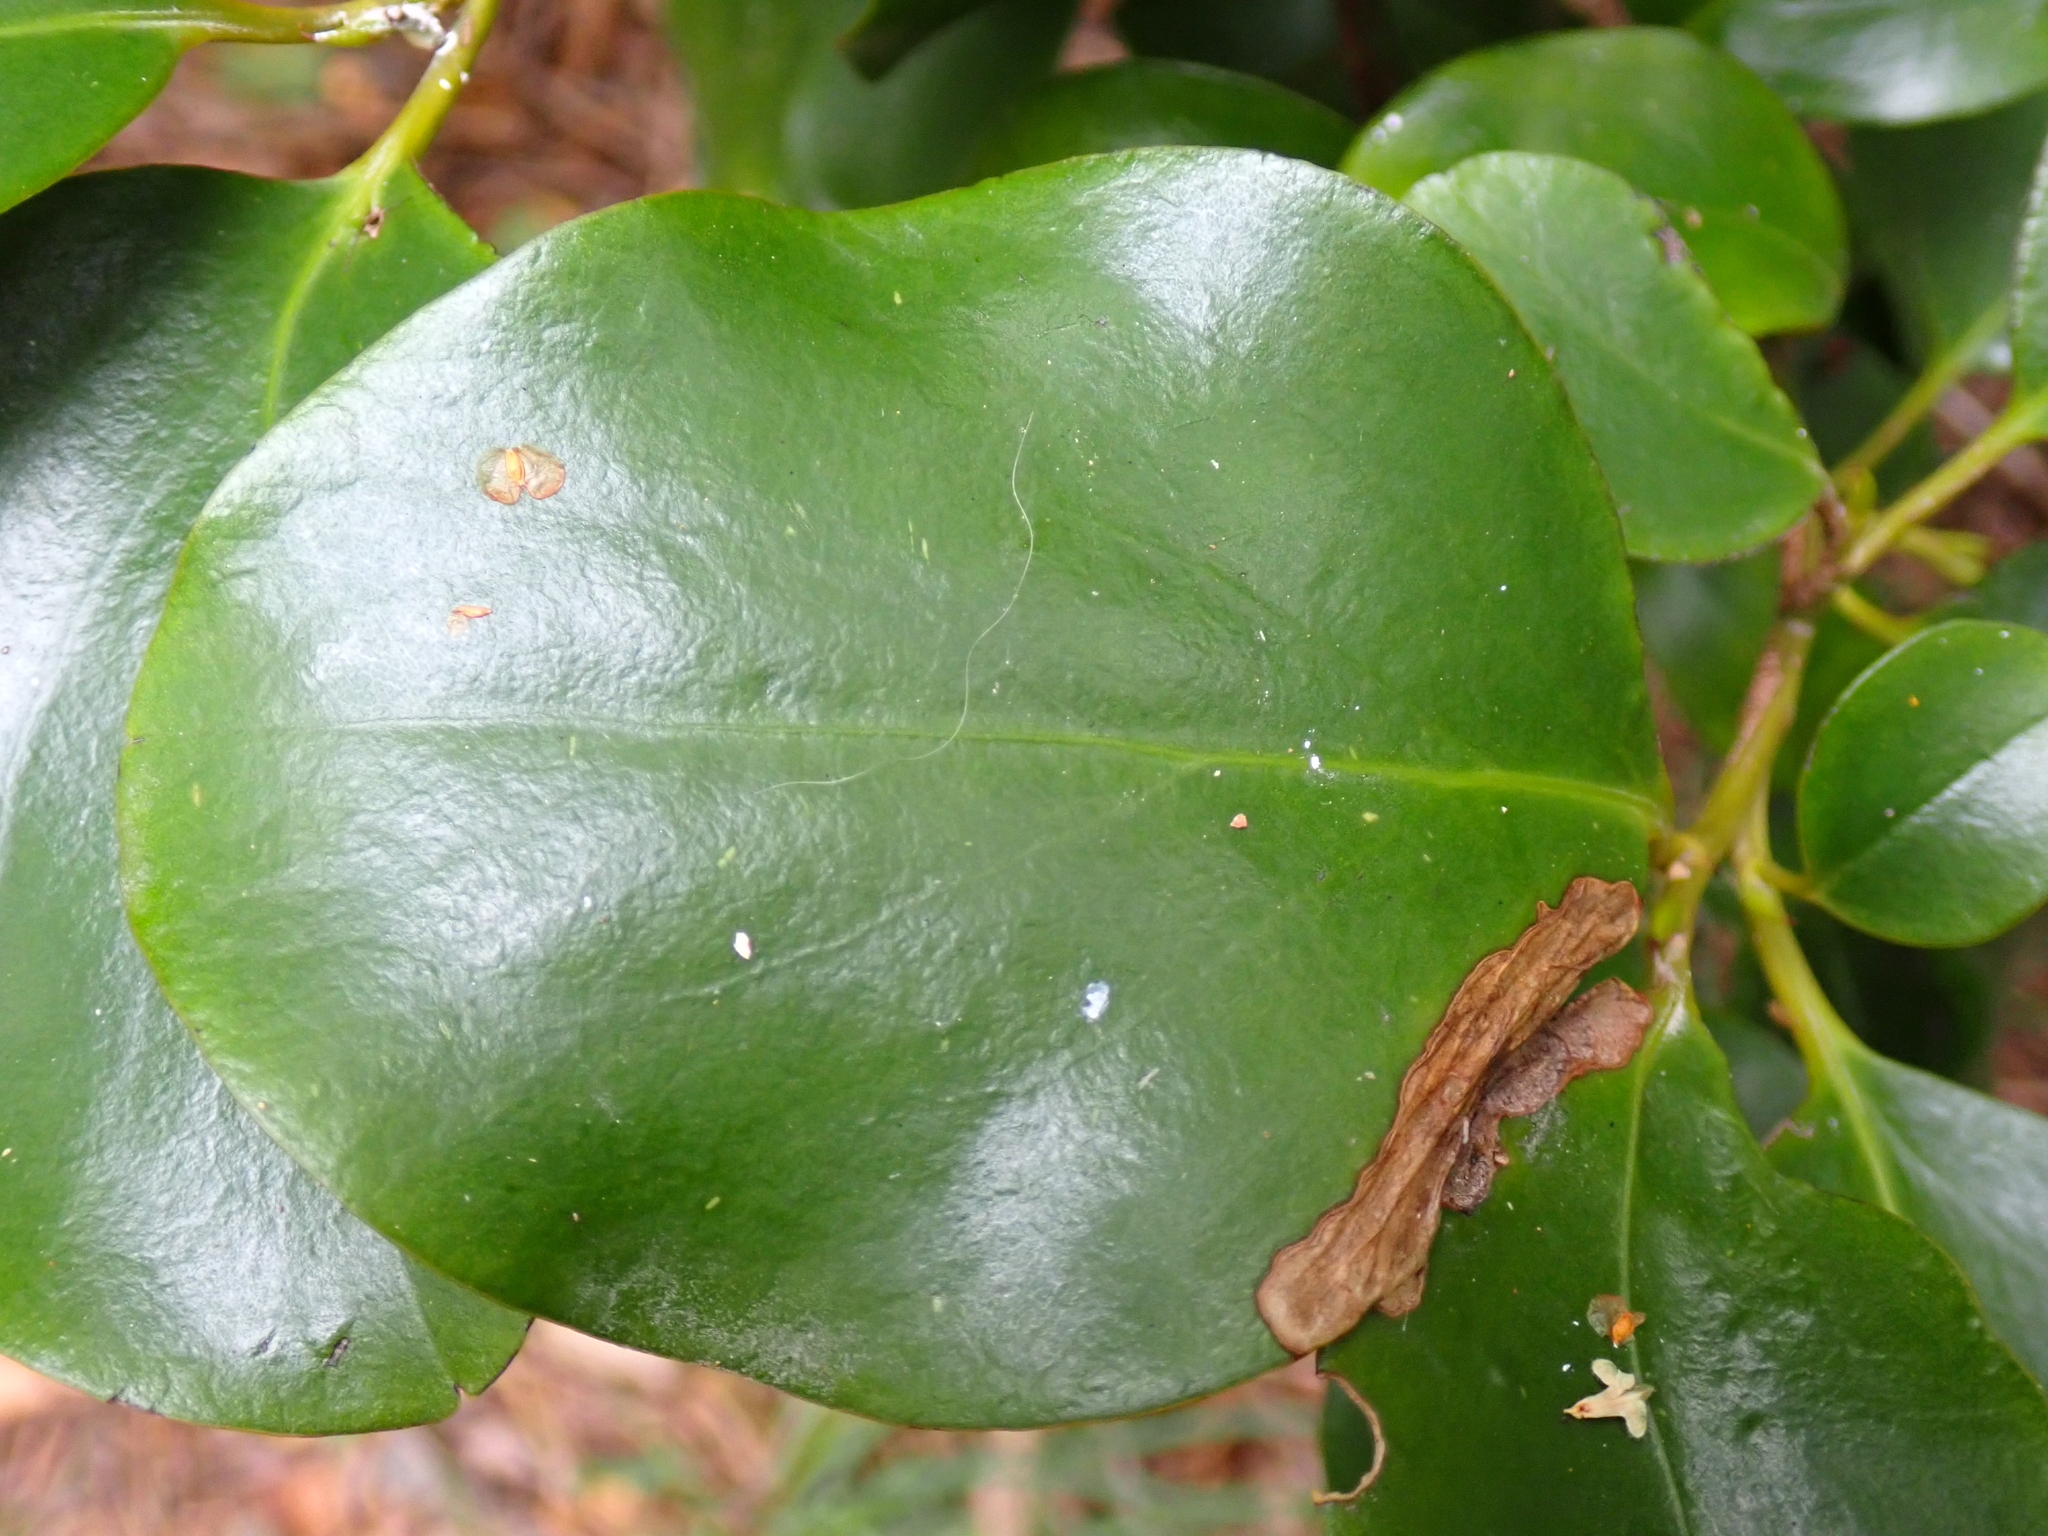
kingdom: Plantae
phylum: Tracheophyta
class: Magnoliopsida
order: Apiales
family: Griseliniaceae
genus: Griselinia
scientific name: Griselinia littoralis
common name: New zealand broadleaf
